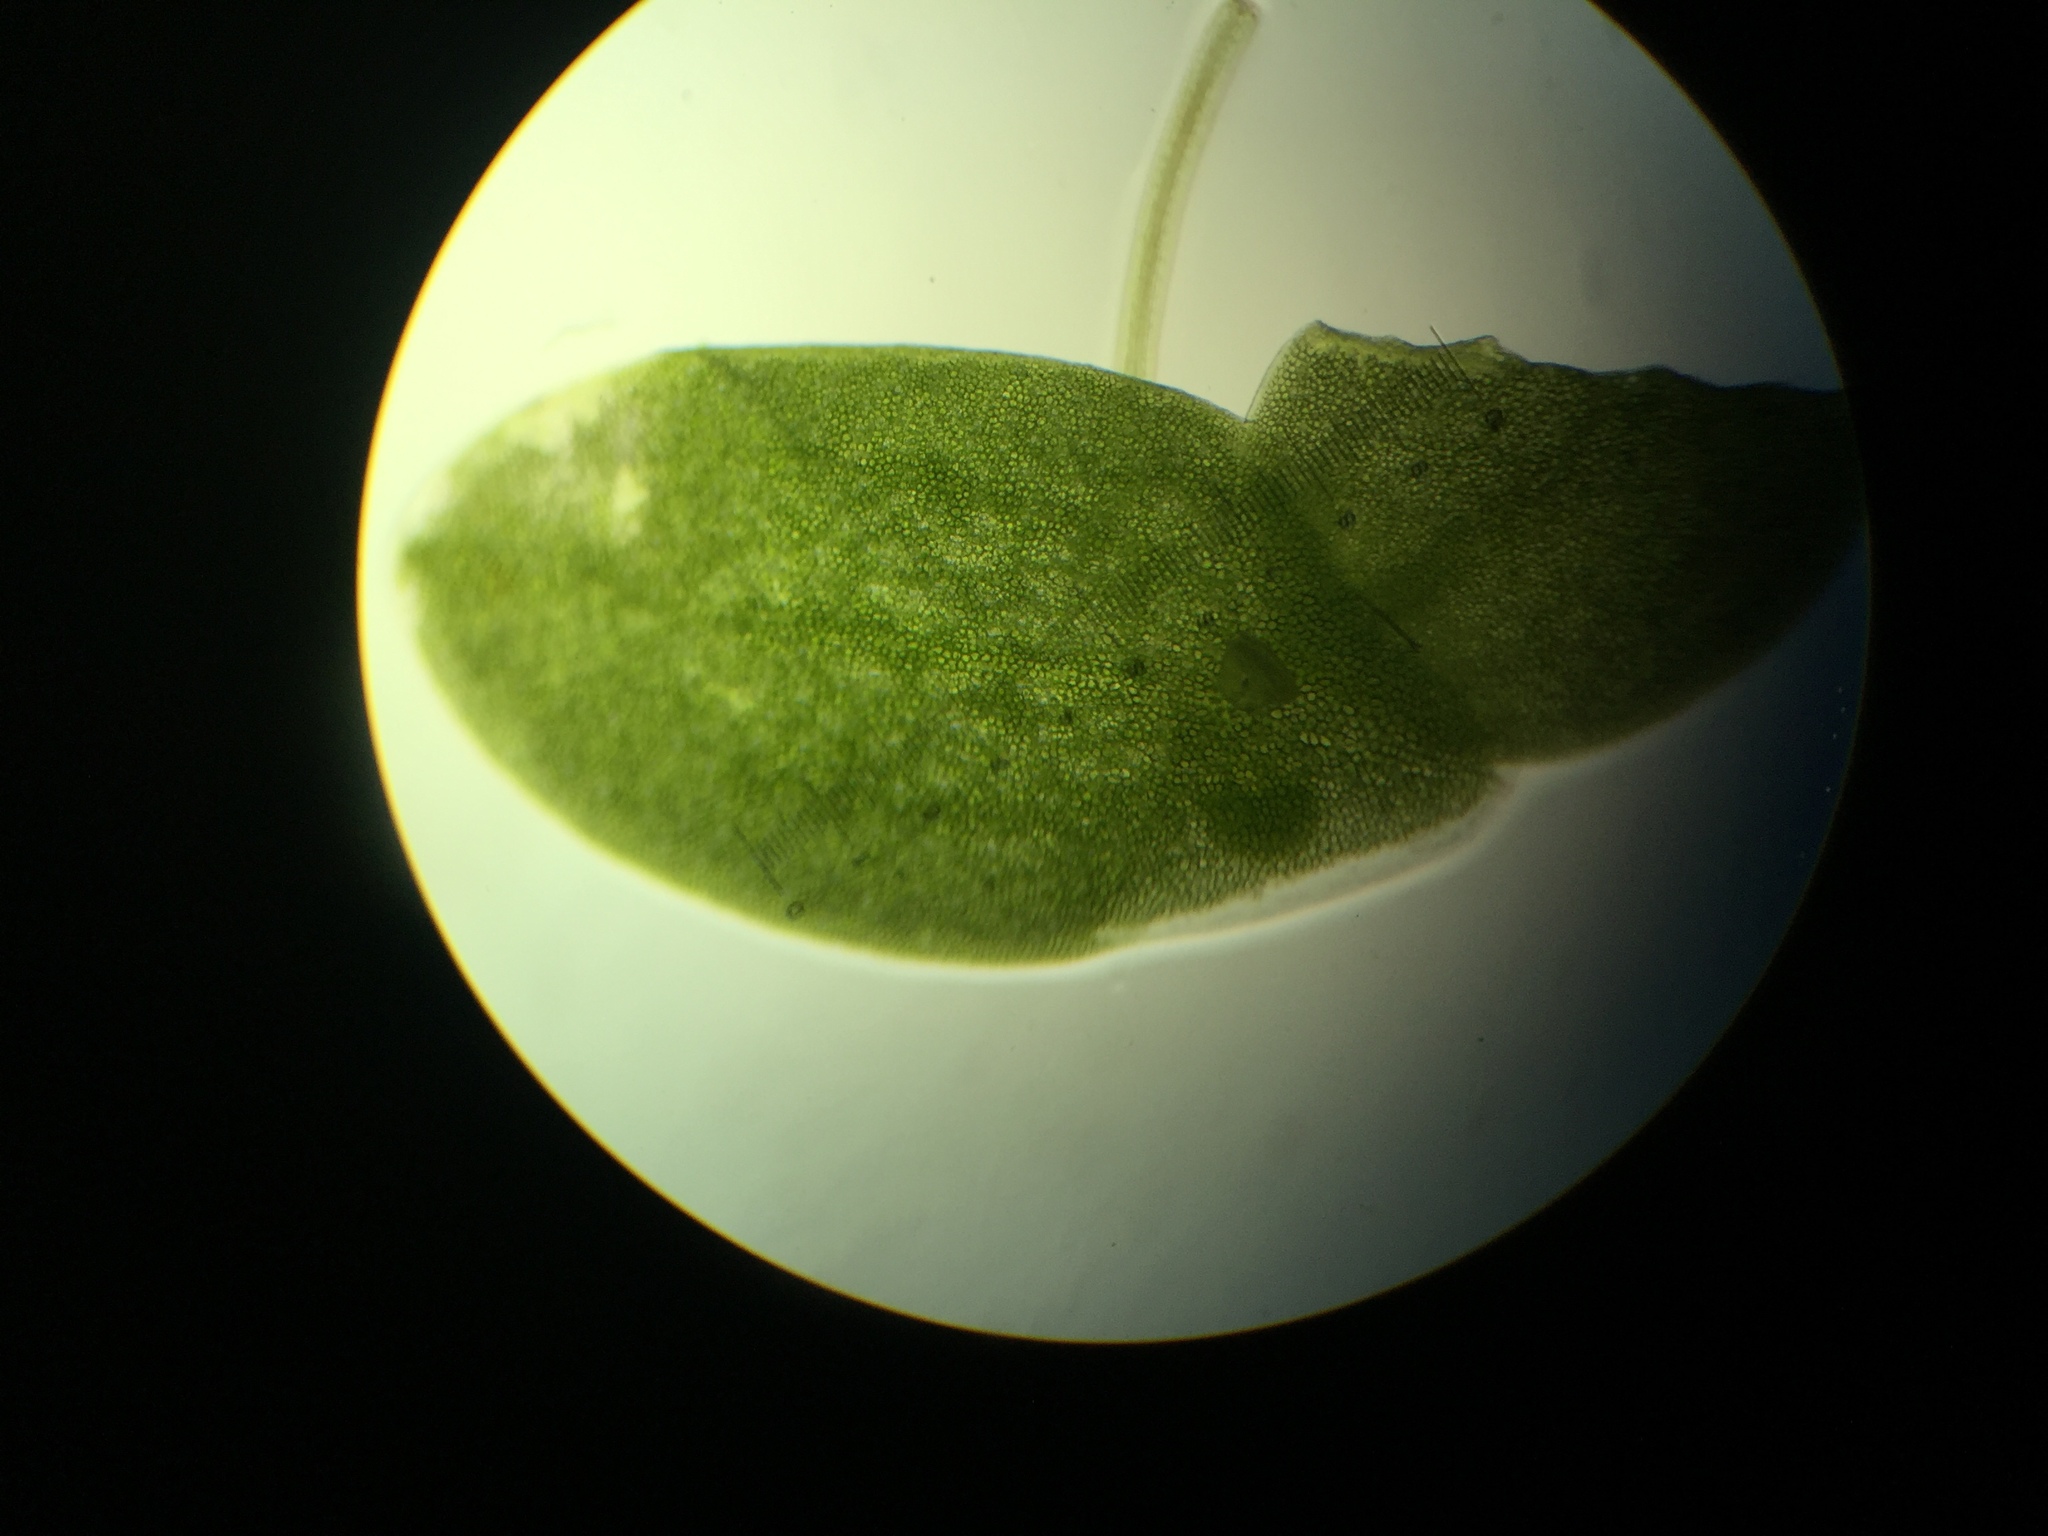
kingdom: Plantae
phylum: Tracheophyta
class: Liliopsida
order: Alismatales
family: Araceae
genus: Lemna
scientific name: Lemna aequinoctialis
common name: Duckweed
